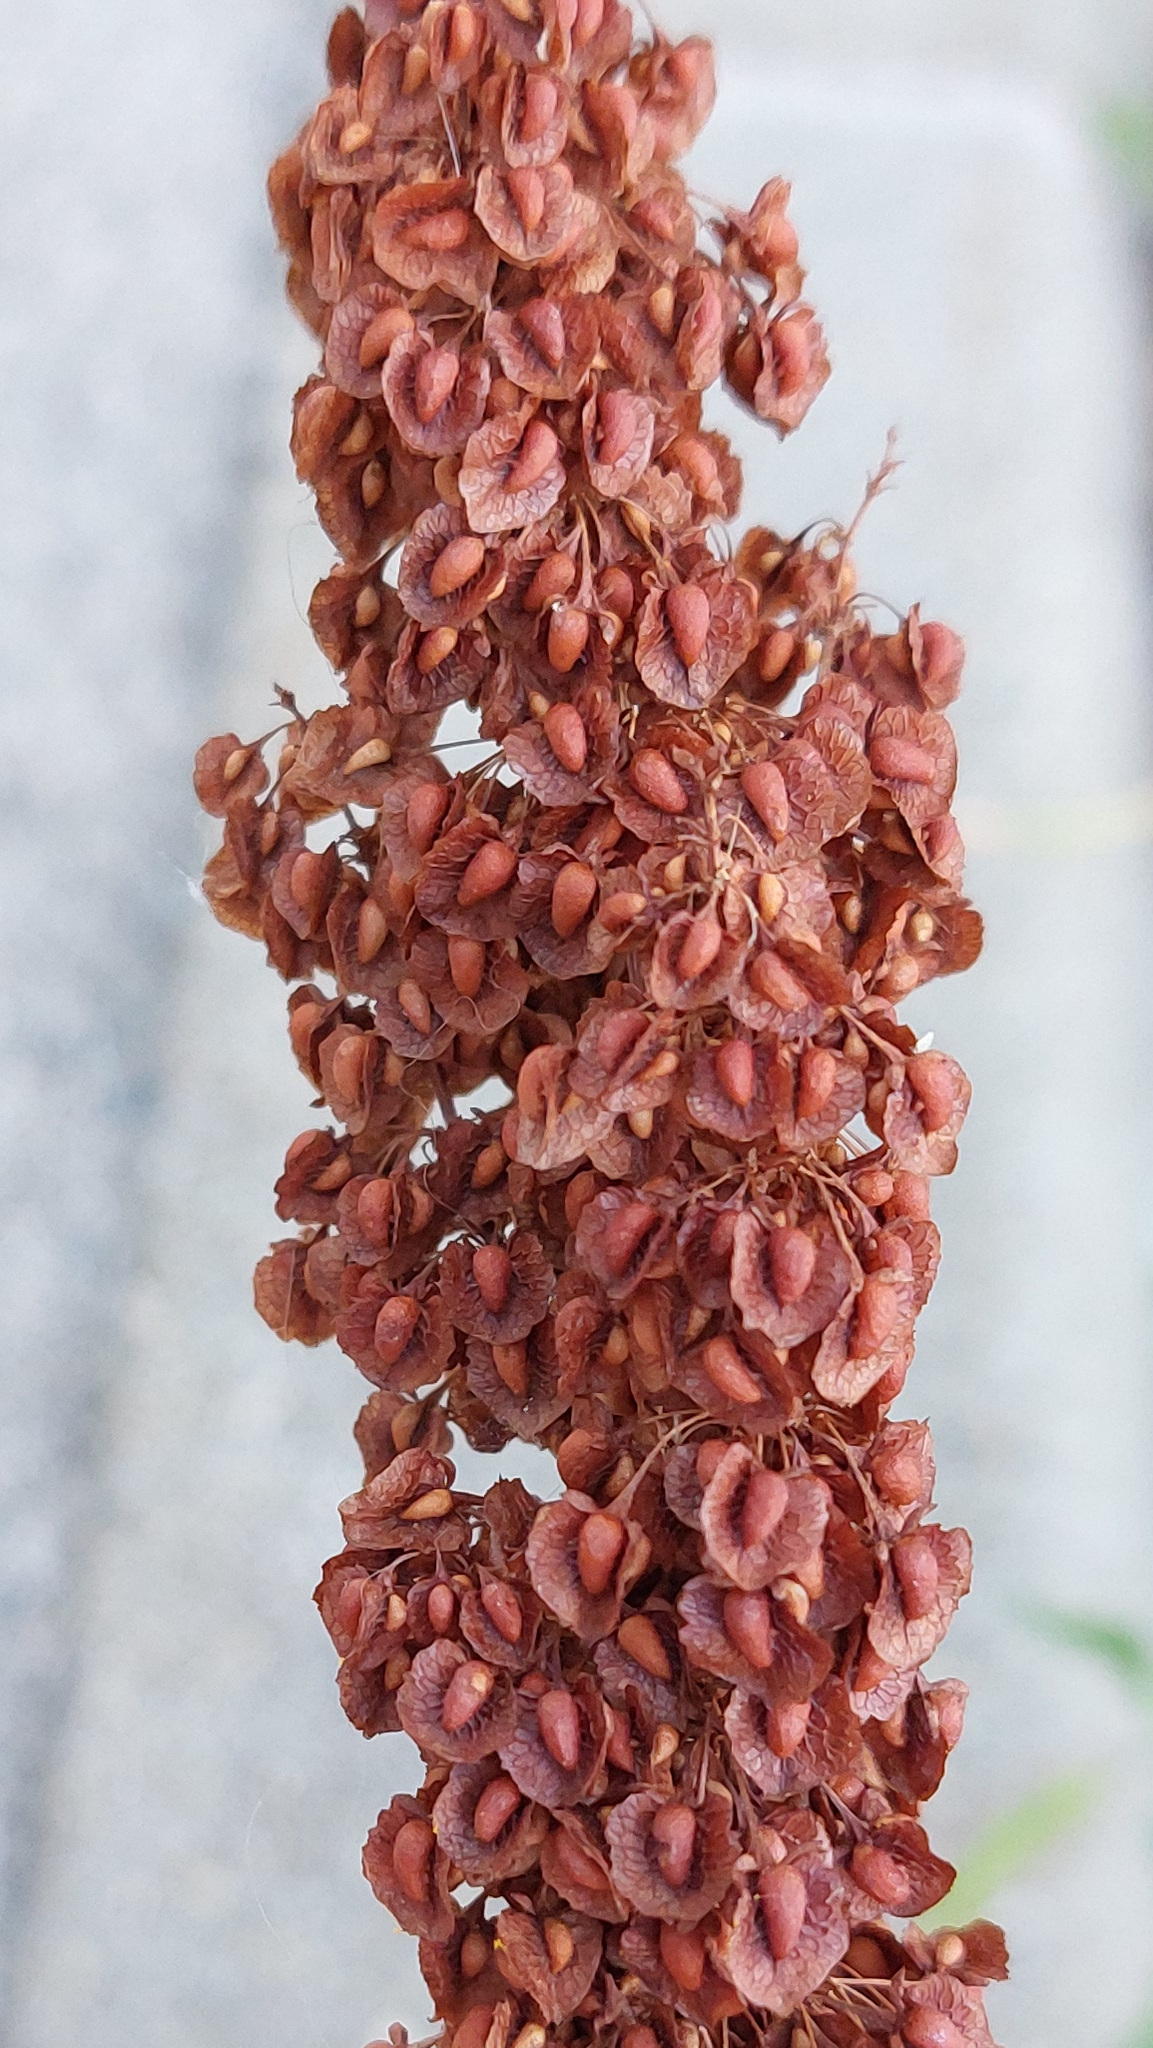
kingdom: Plantae
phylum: Tracheophyta
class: Magnoliopsida
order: Caryophyllales
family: Polygonaceae
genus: Rumex
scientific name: Rumex crispus
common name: Curled dock
